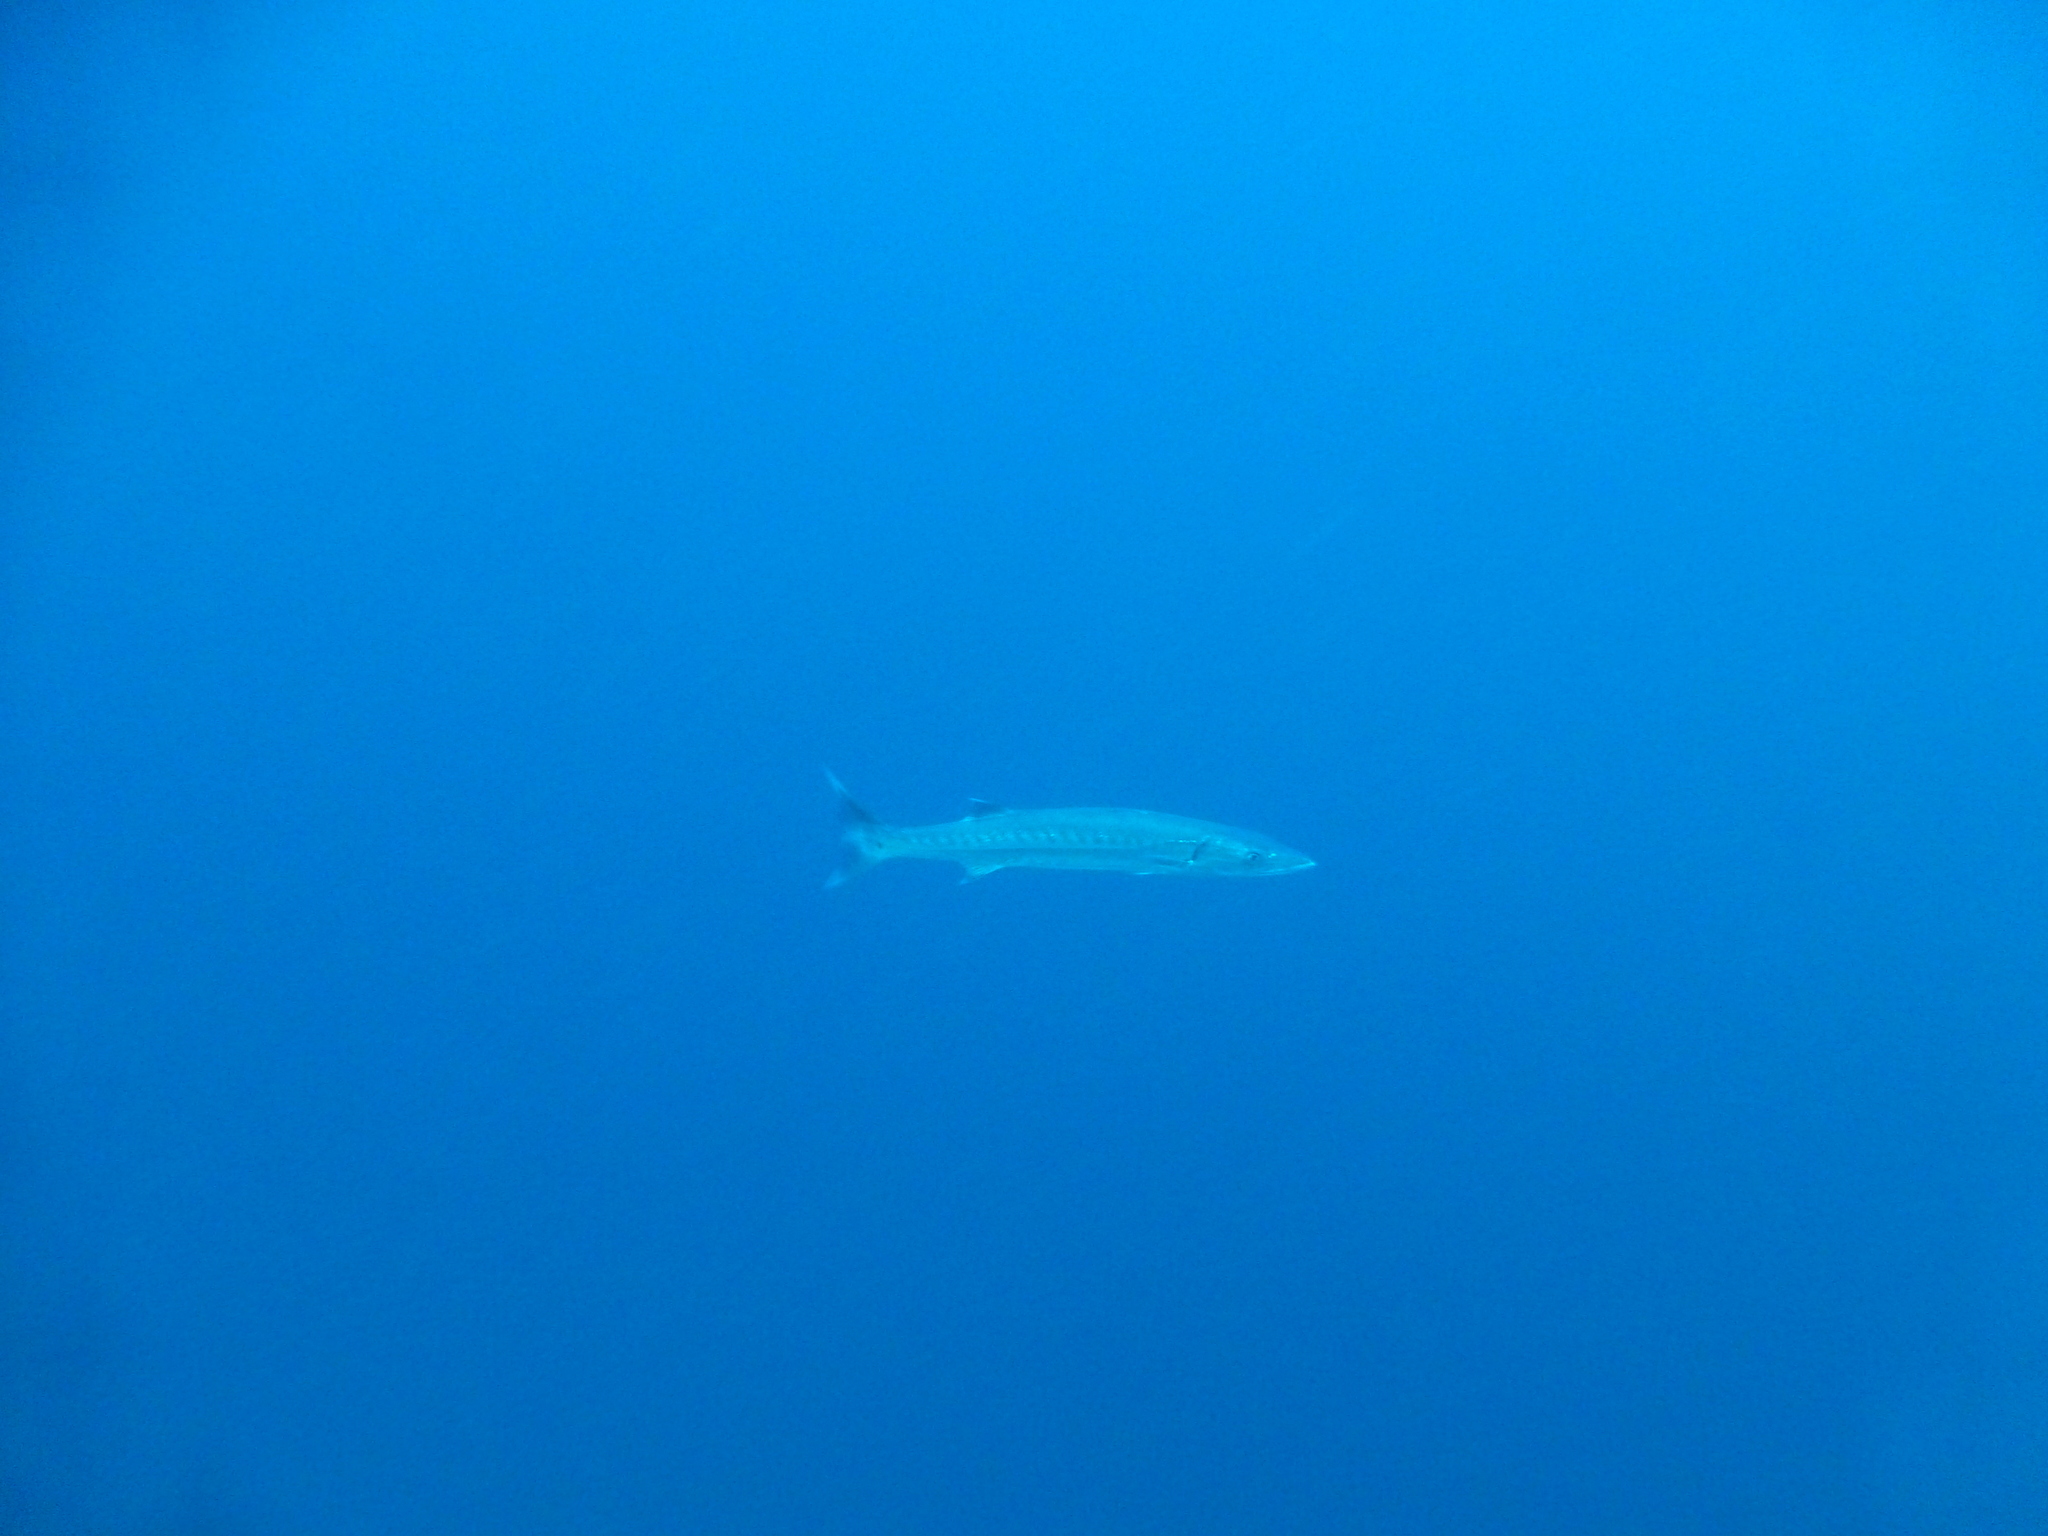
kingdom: Animalia
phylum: Chordata
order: Perciformes
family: Sphyraenidae
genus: Sphyraena
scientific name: Sphyraena barracuda
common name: Great barracuda
